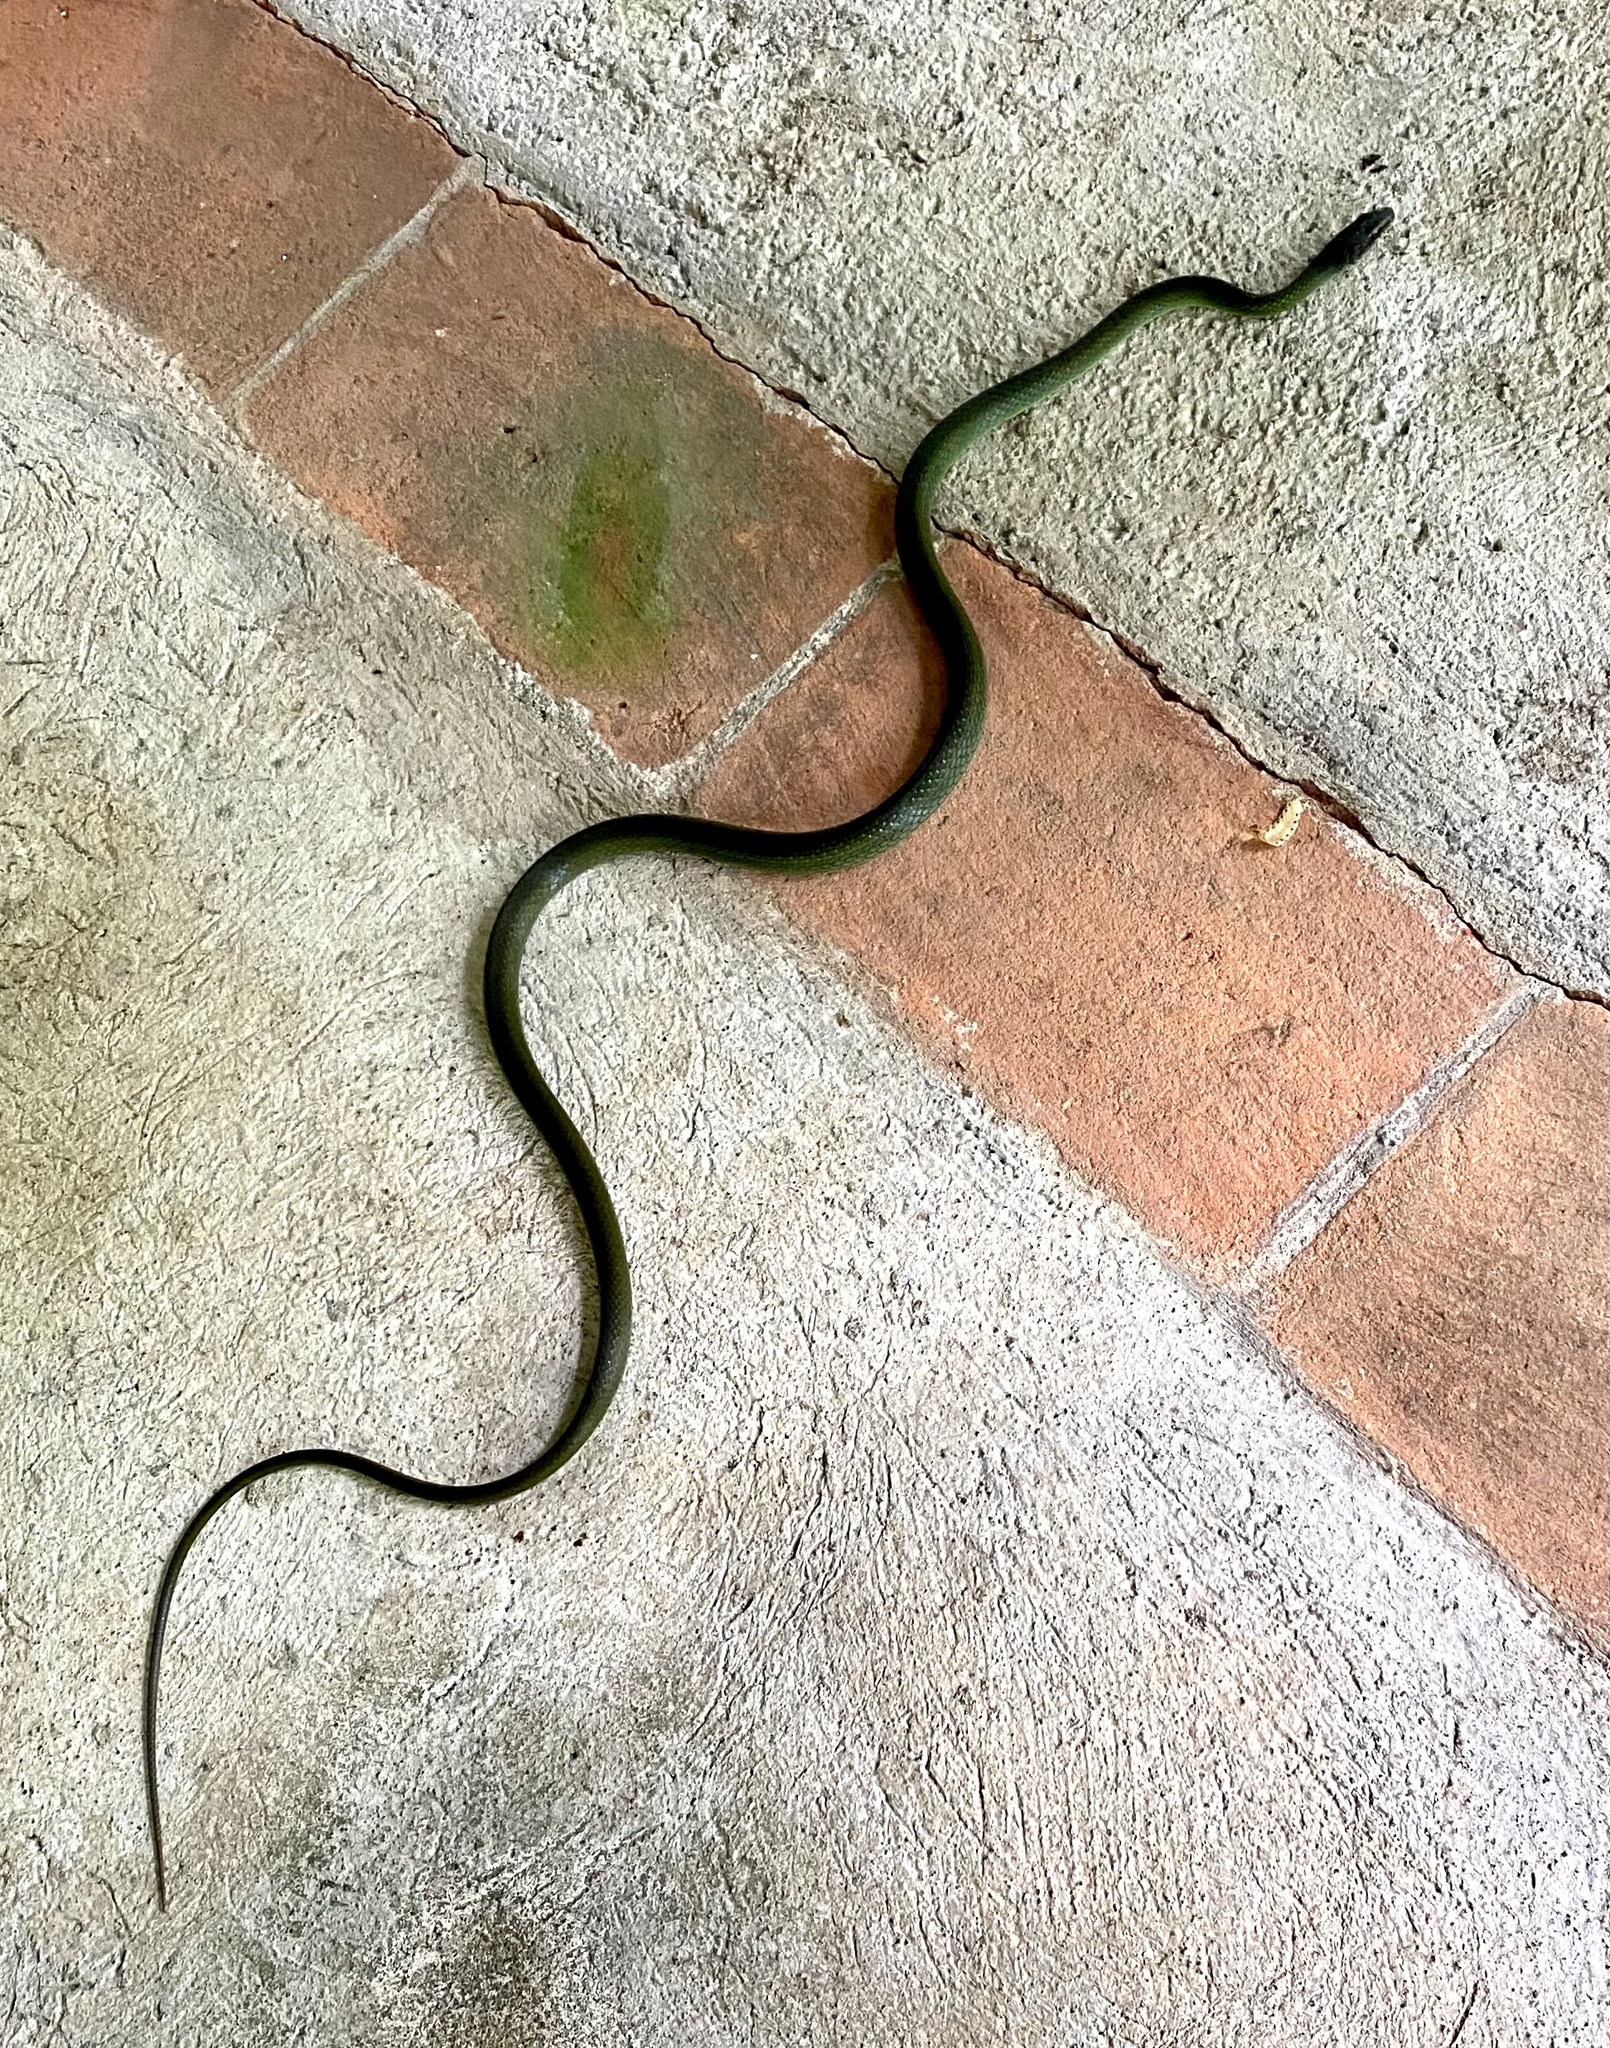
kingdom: Animalia
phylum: Chordata
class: Squamata
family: Colubridae
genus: Mastigodryas
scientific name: Mastigodryas dorsalis
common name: Striped lizard eater
